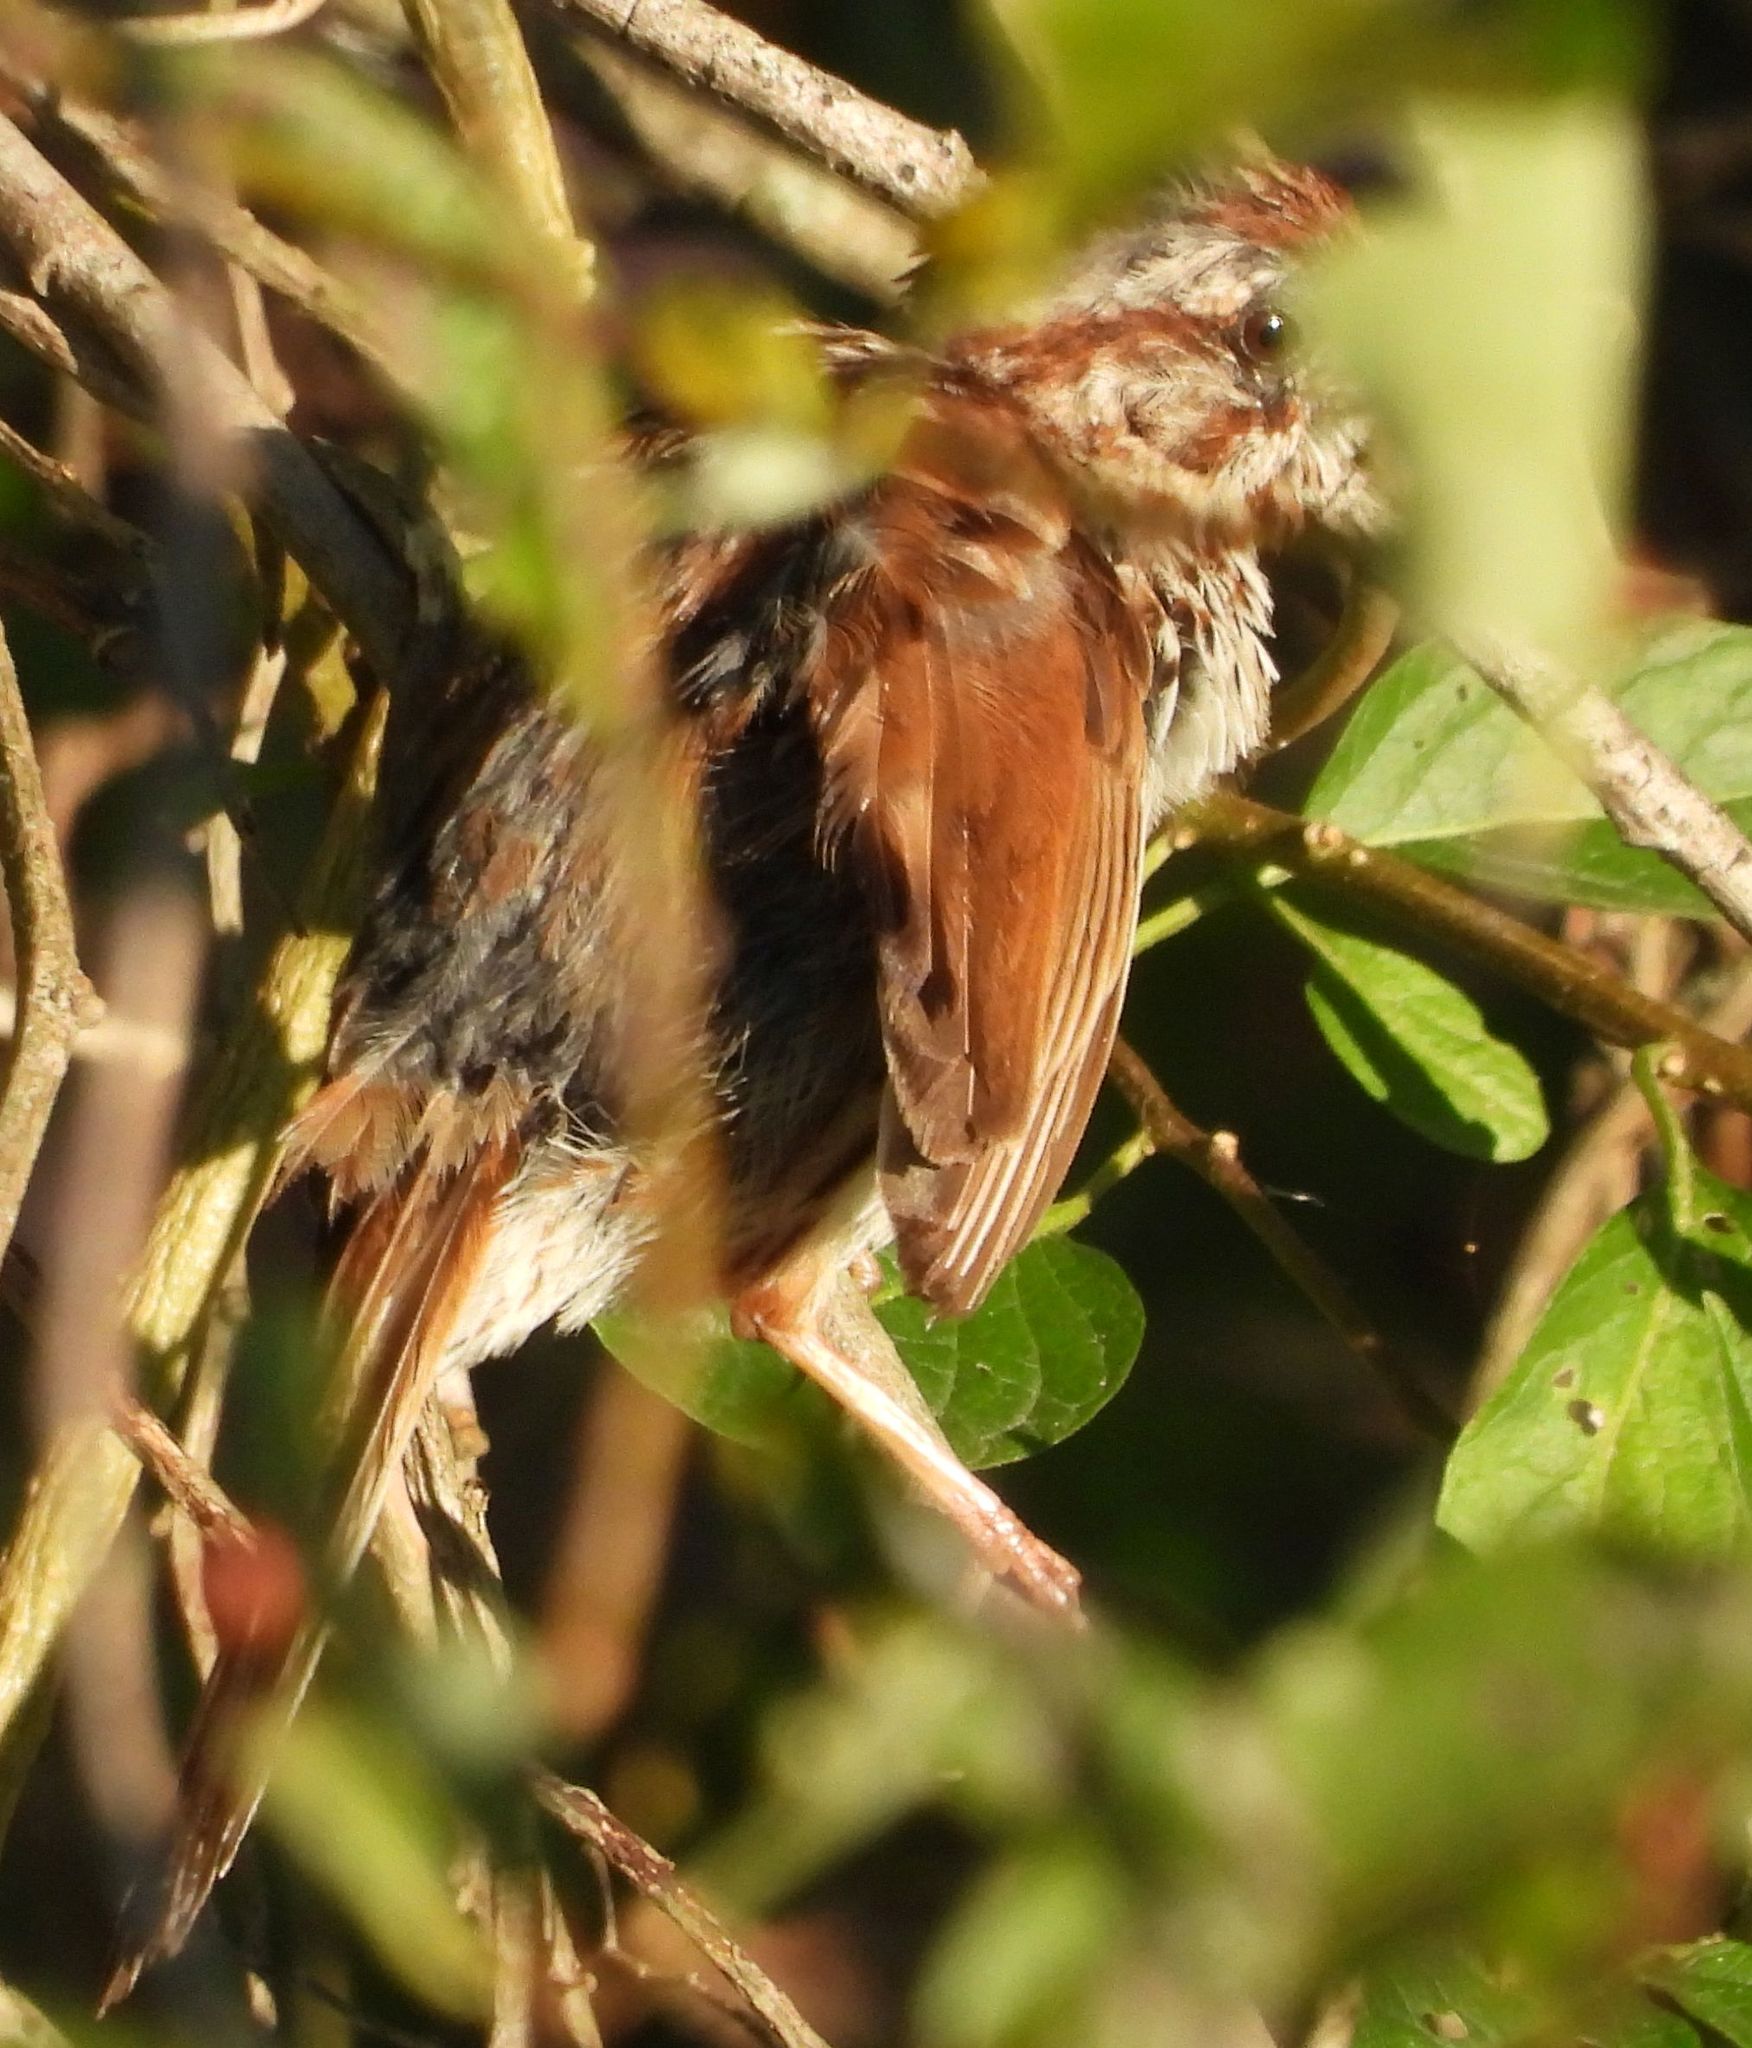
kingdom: Animalia
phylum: Chordata
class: Aves
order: Passeriformes
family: Passerellidae
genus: Melospiza
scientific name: Melospiza melodia
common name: Song sparrow
